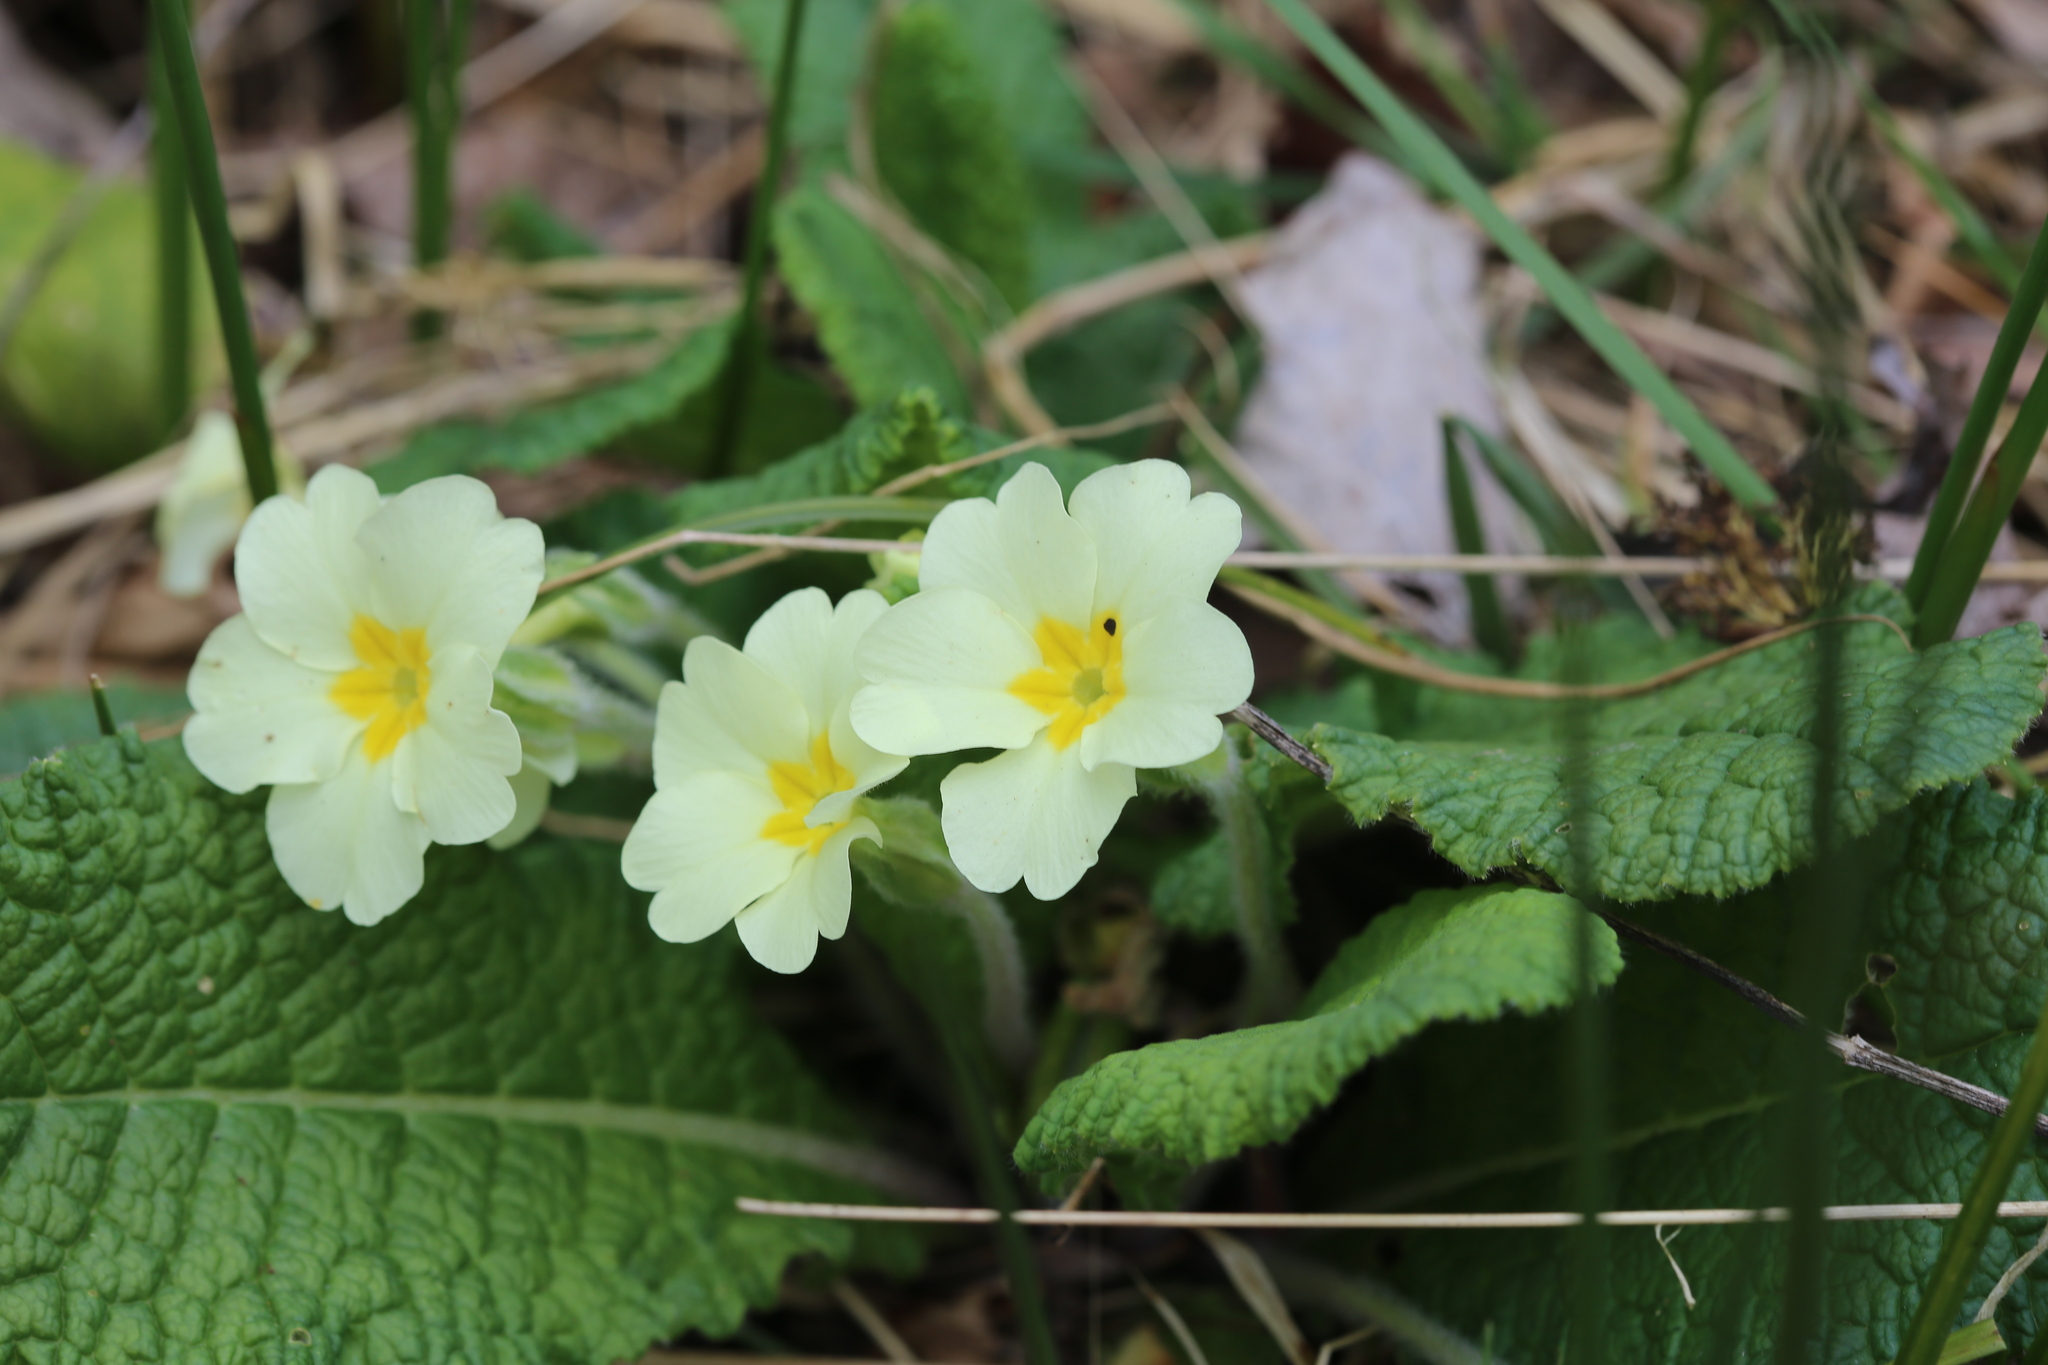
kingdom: Plantae
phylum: Tracheophyta
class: Magnoliopsida
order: Ericales
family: Primulaceae
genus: Primula
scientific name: Primula vulgaris
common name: Primrose
